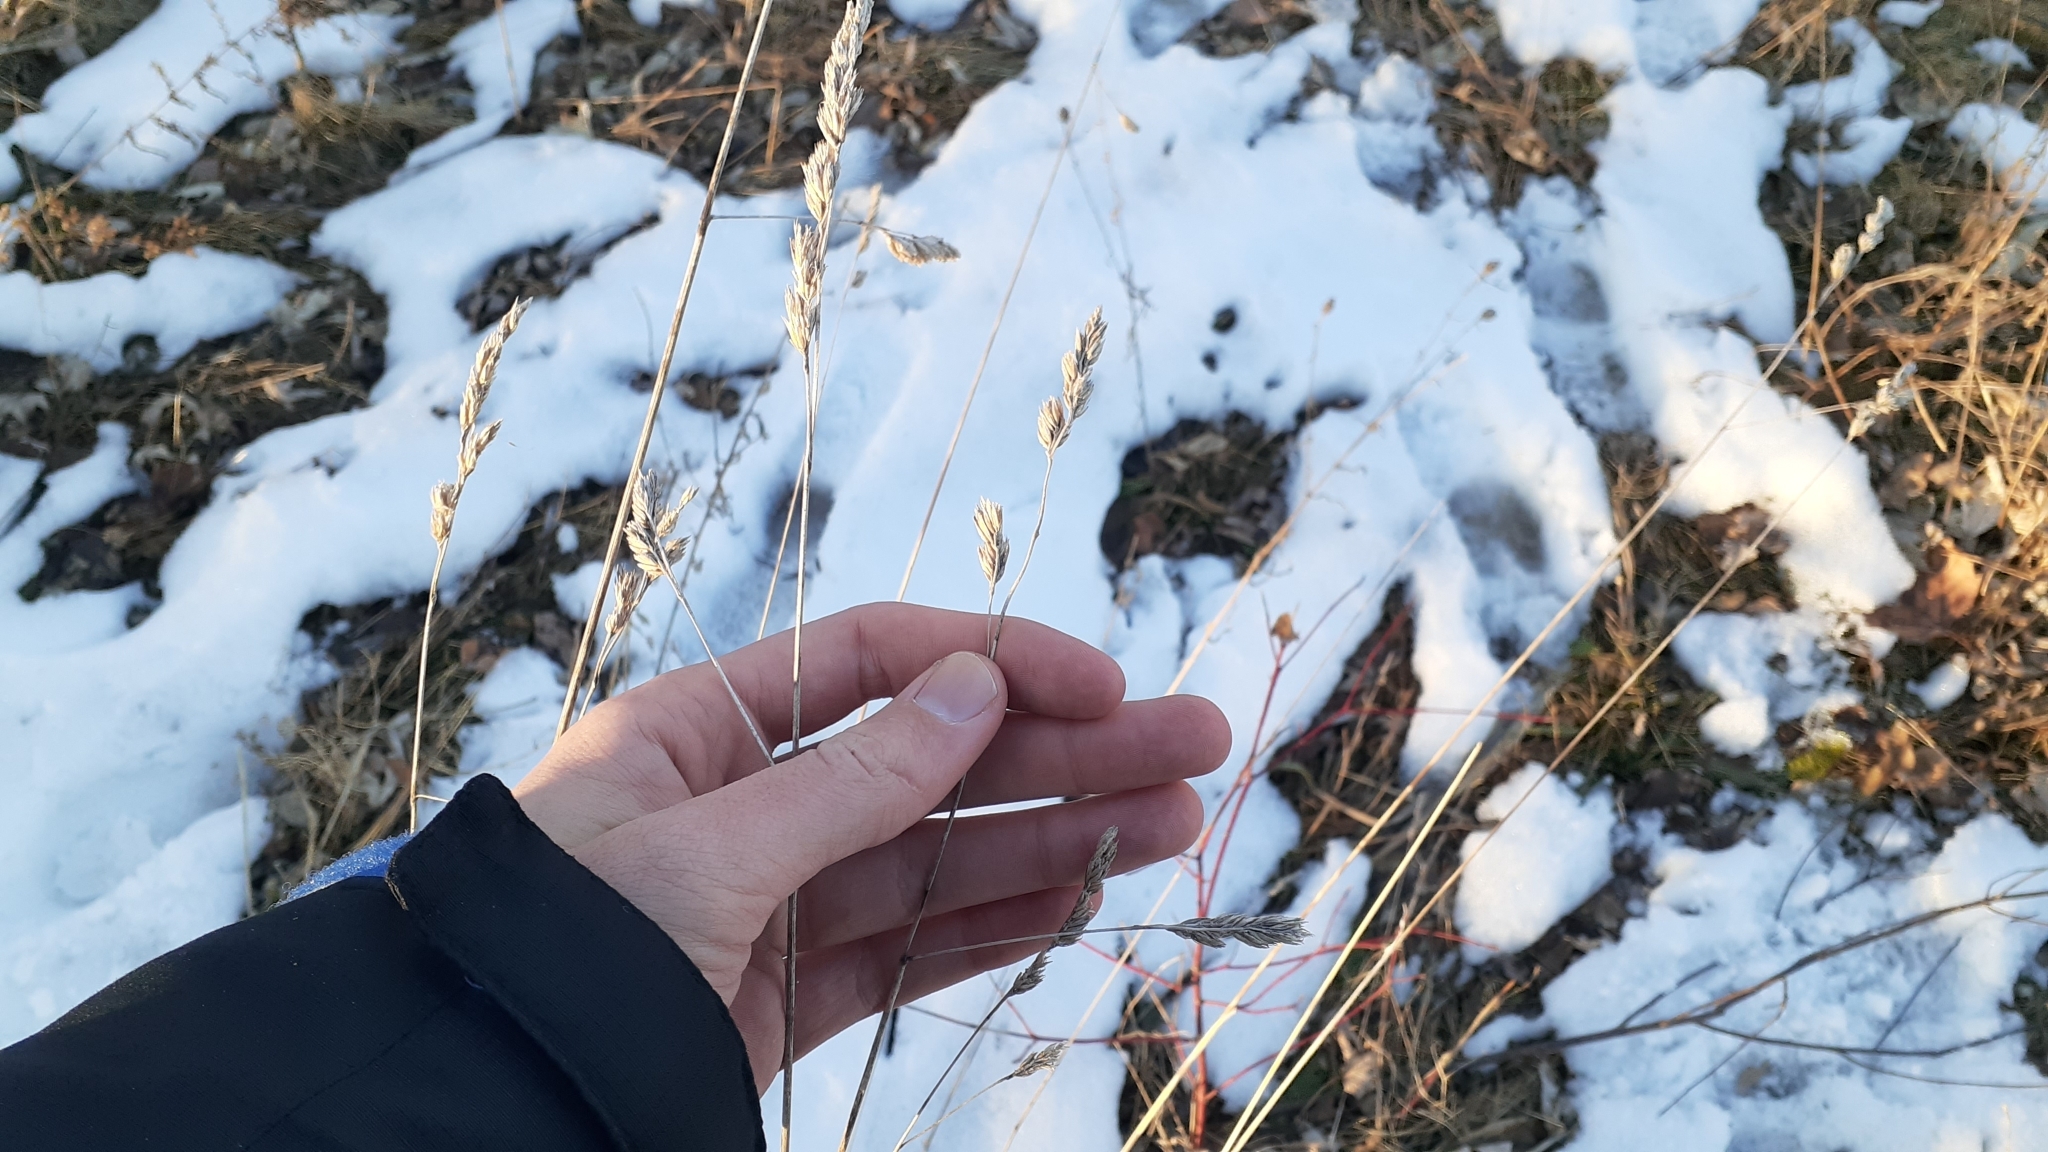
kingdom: Plantae
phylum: Tracheophyta
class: Liliopsida
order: Poales
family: Poaceae
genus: Dactylis
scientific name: Dactylis glomerata
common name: Orchardgrass
